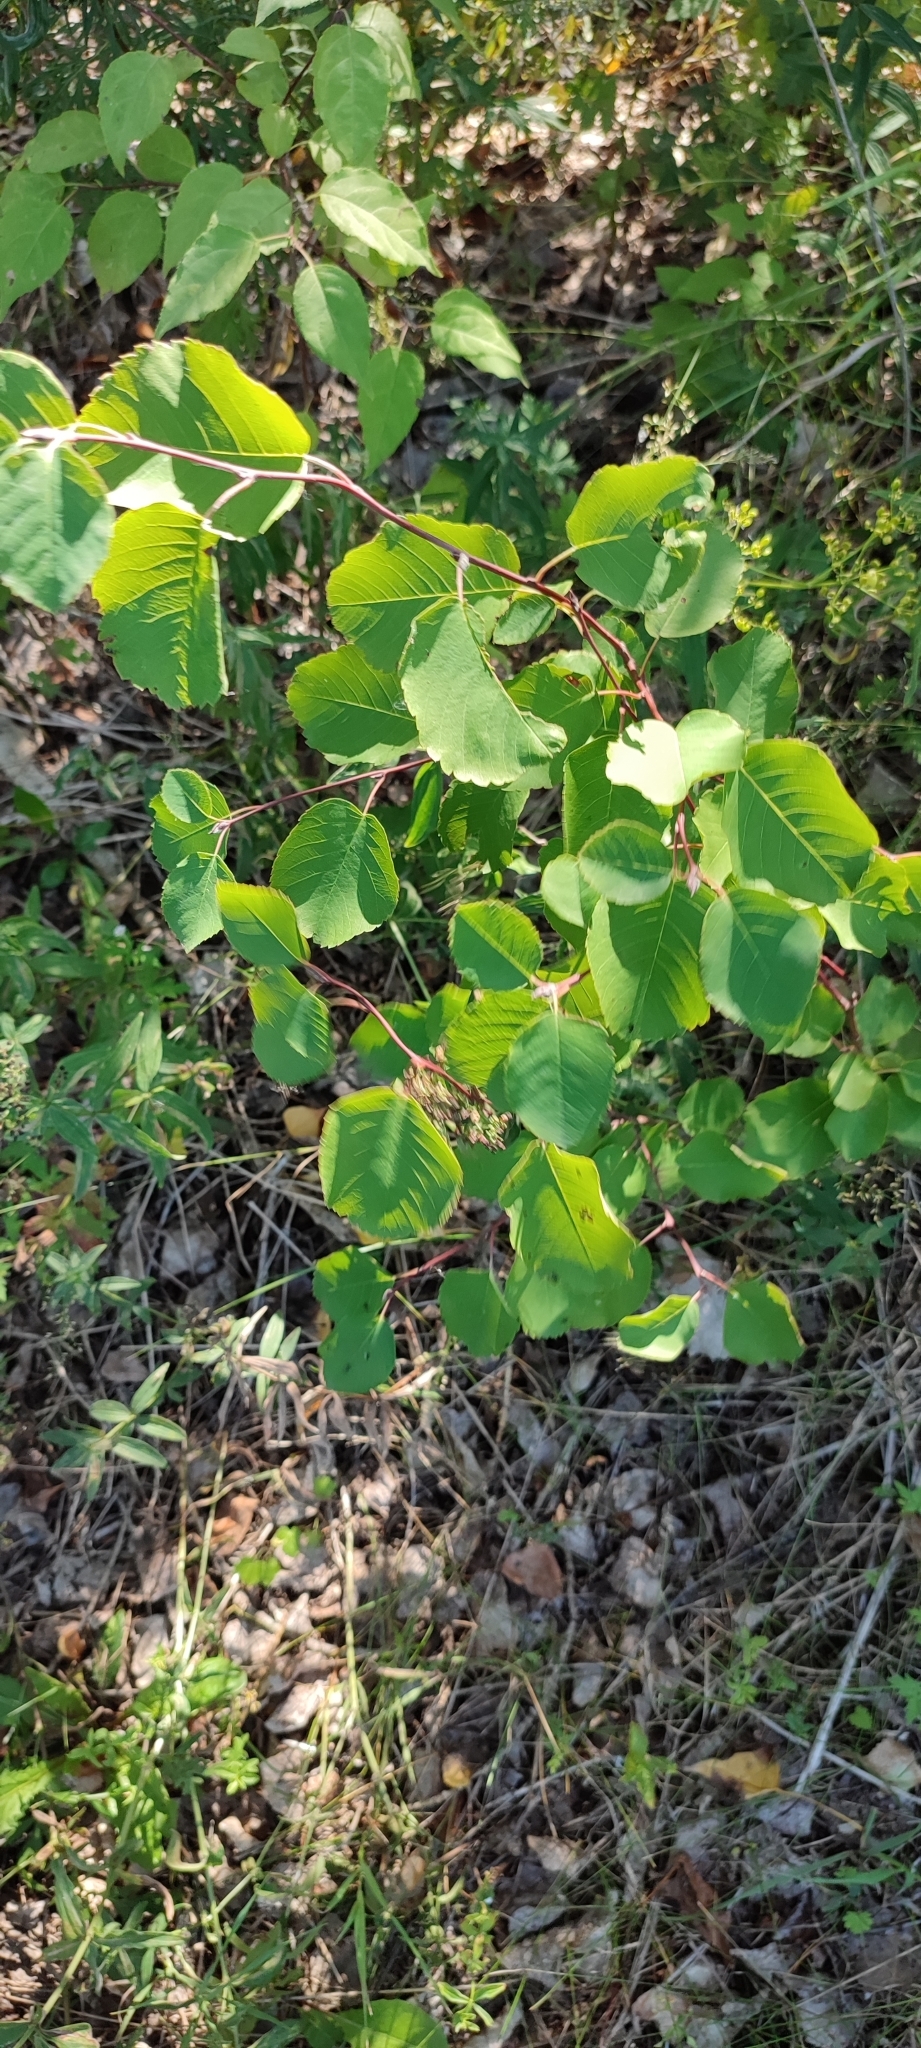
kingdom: Plantae
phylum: Tracheophyta
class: Magnoliopsida
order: Rosales
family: Rosaceae
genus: Amelanchier
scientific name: Amelanchier alnifolia
